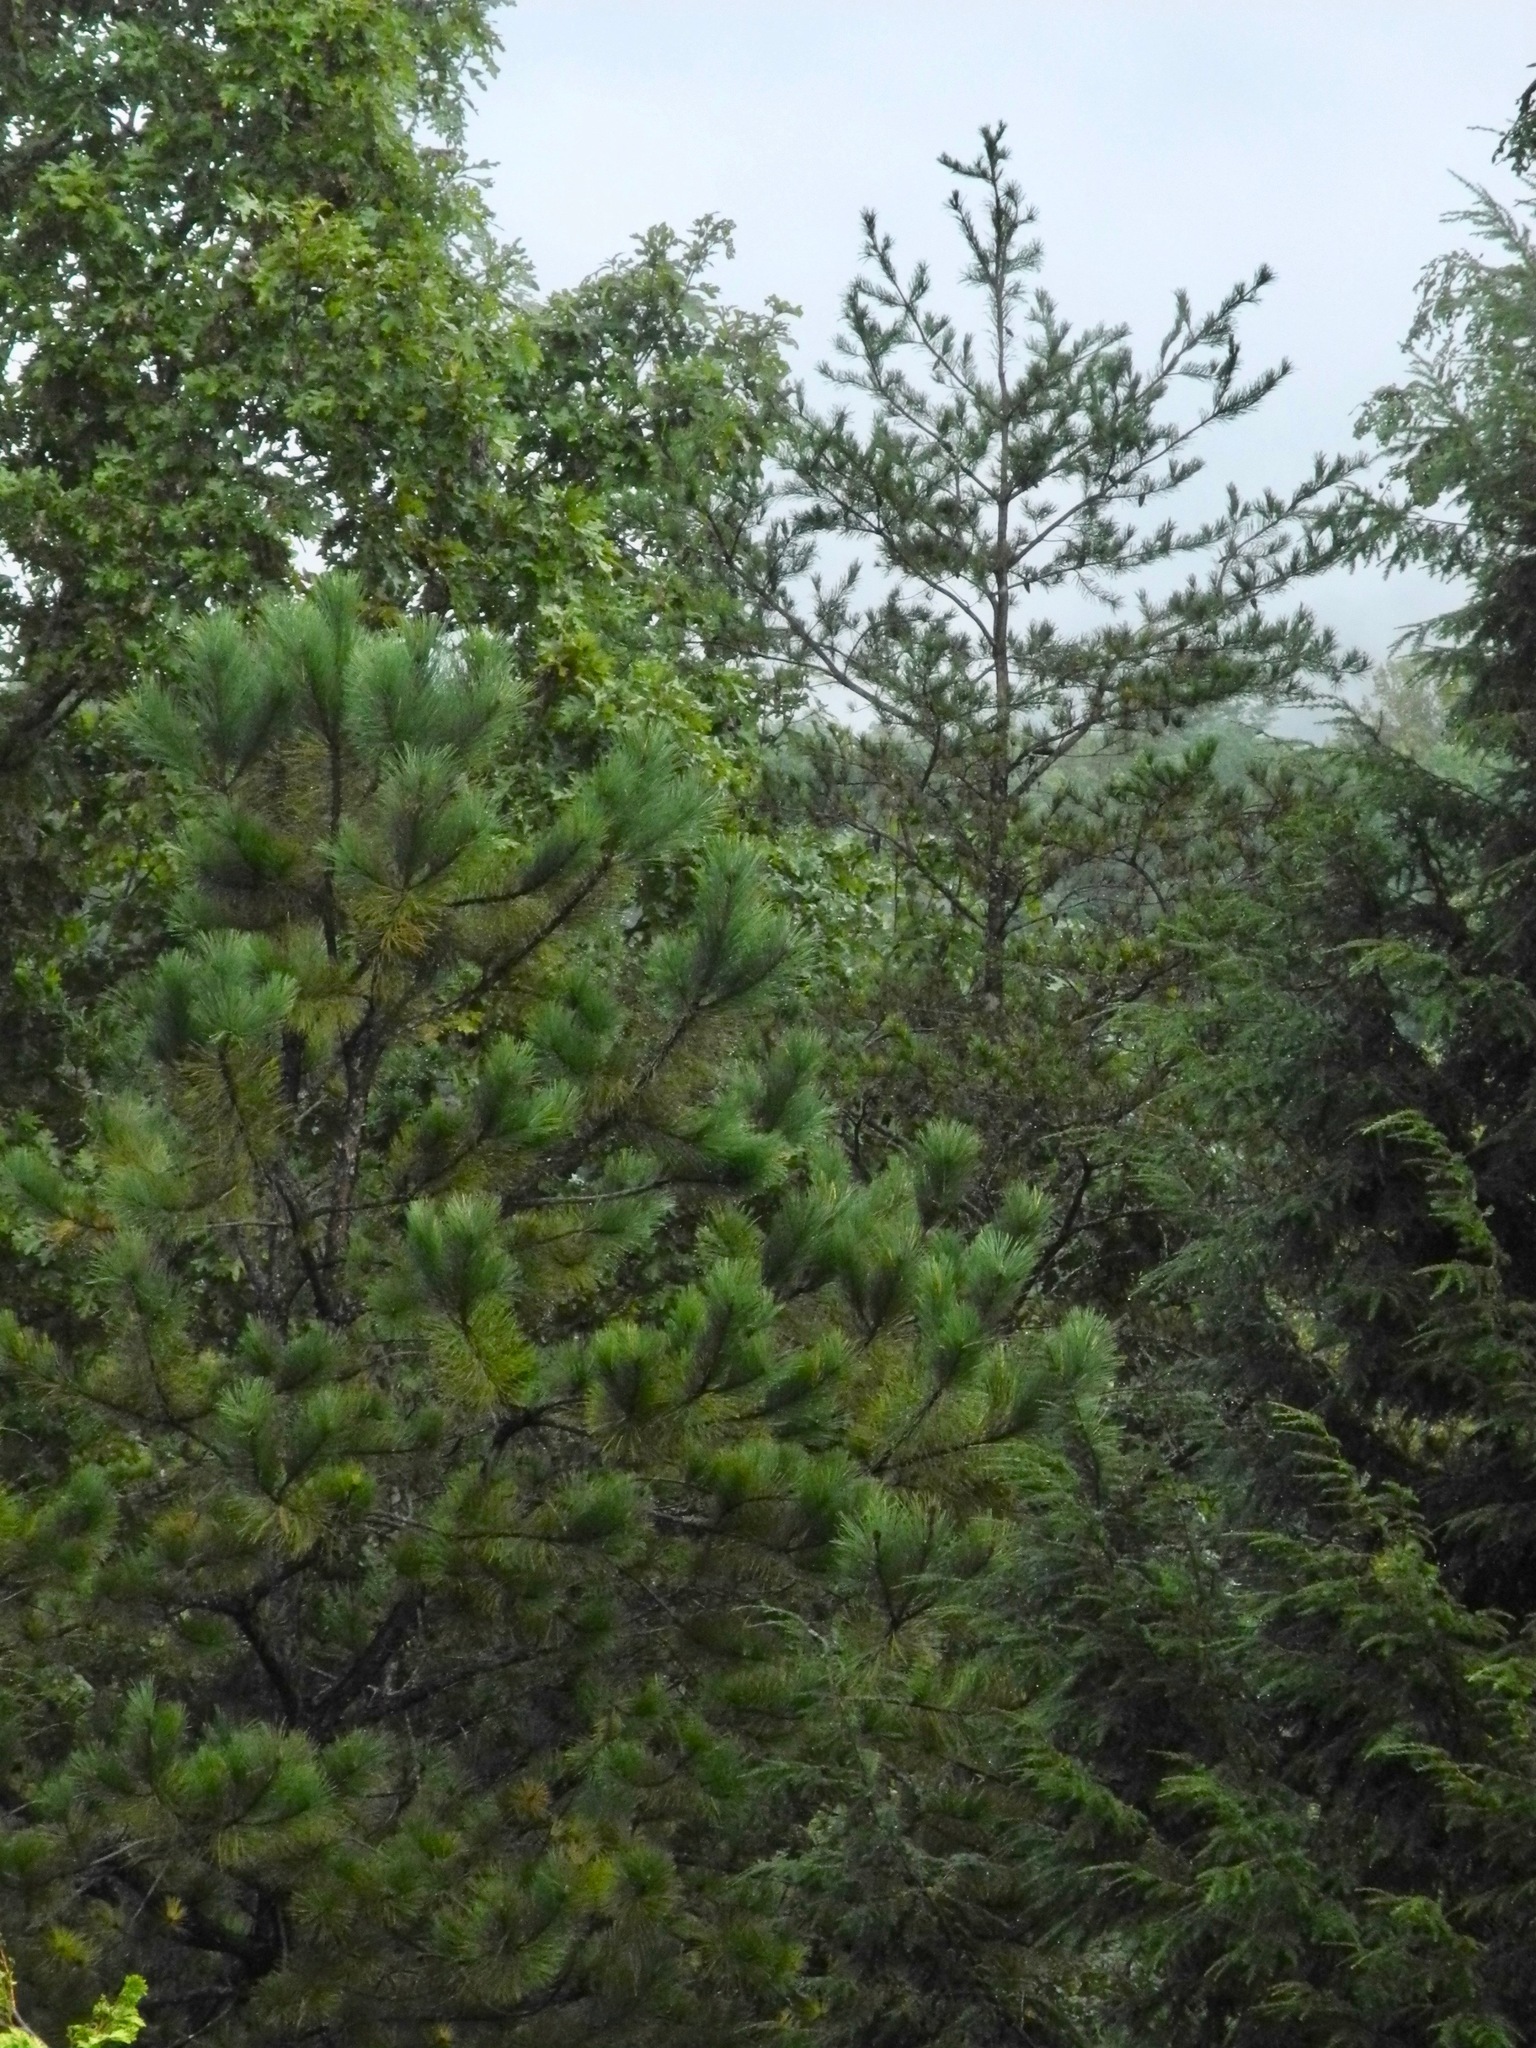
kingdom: Plantae
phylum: Tracheophyta
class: Pinopsida
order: Pinales
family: Pinaceae
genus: Pinus
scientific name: Pinus virginiana
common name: Scrub pine
